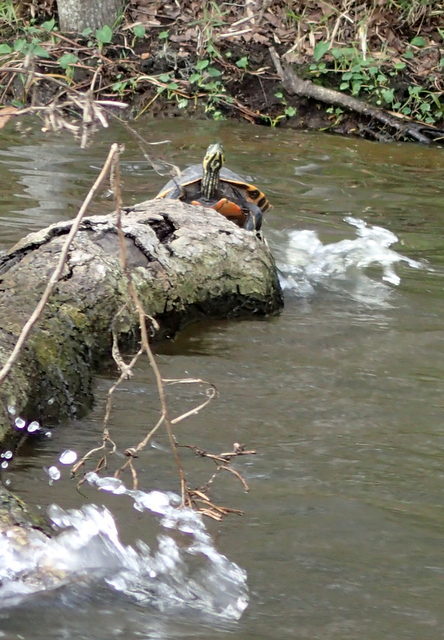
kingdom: Animalia
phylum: Chordata
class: Testudines
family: Emydidae
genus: Pseudemys
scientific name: Pseudemys nelsoni
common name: Florida red-bellied turtle
